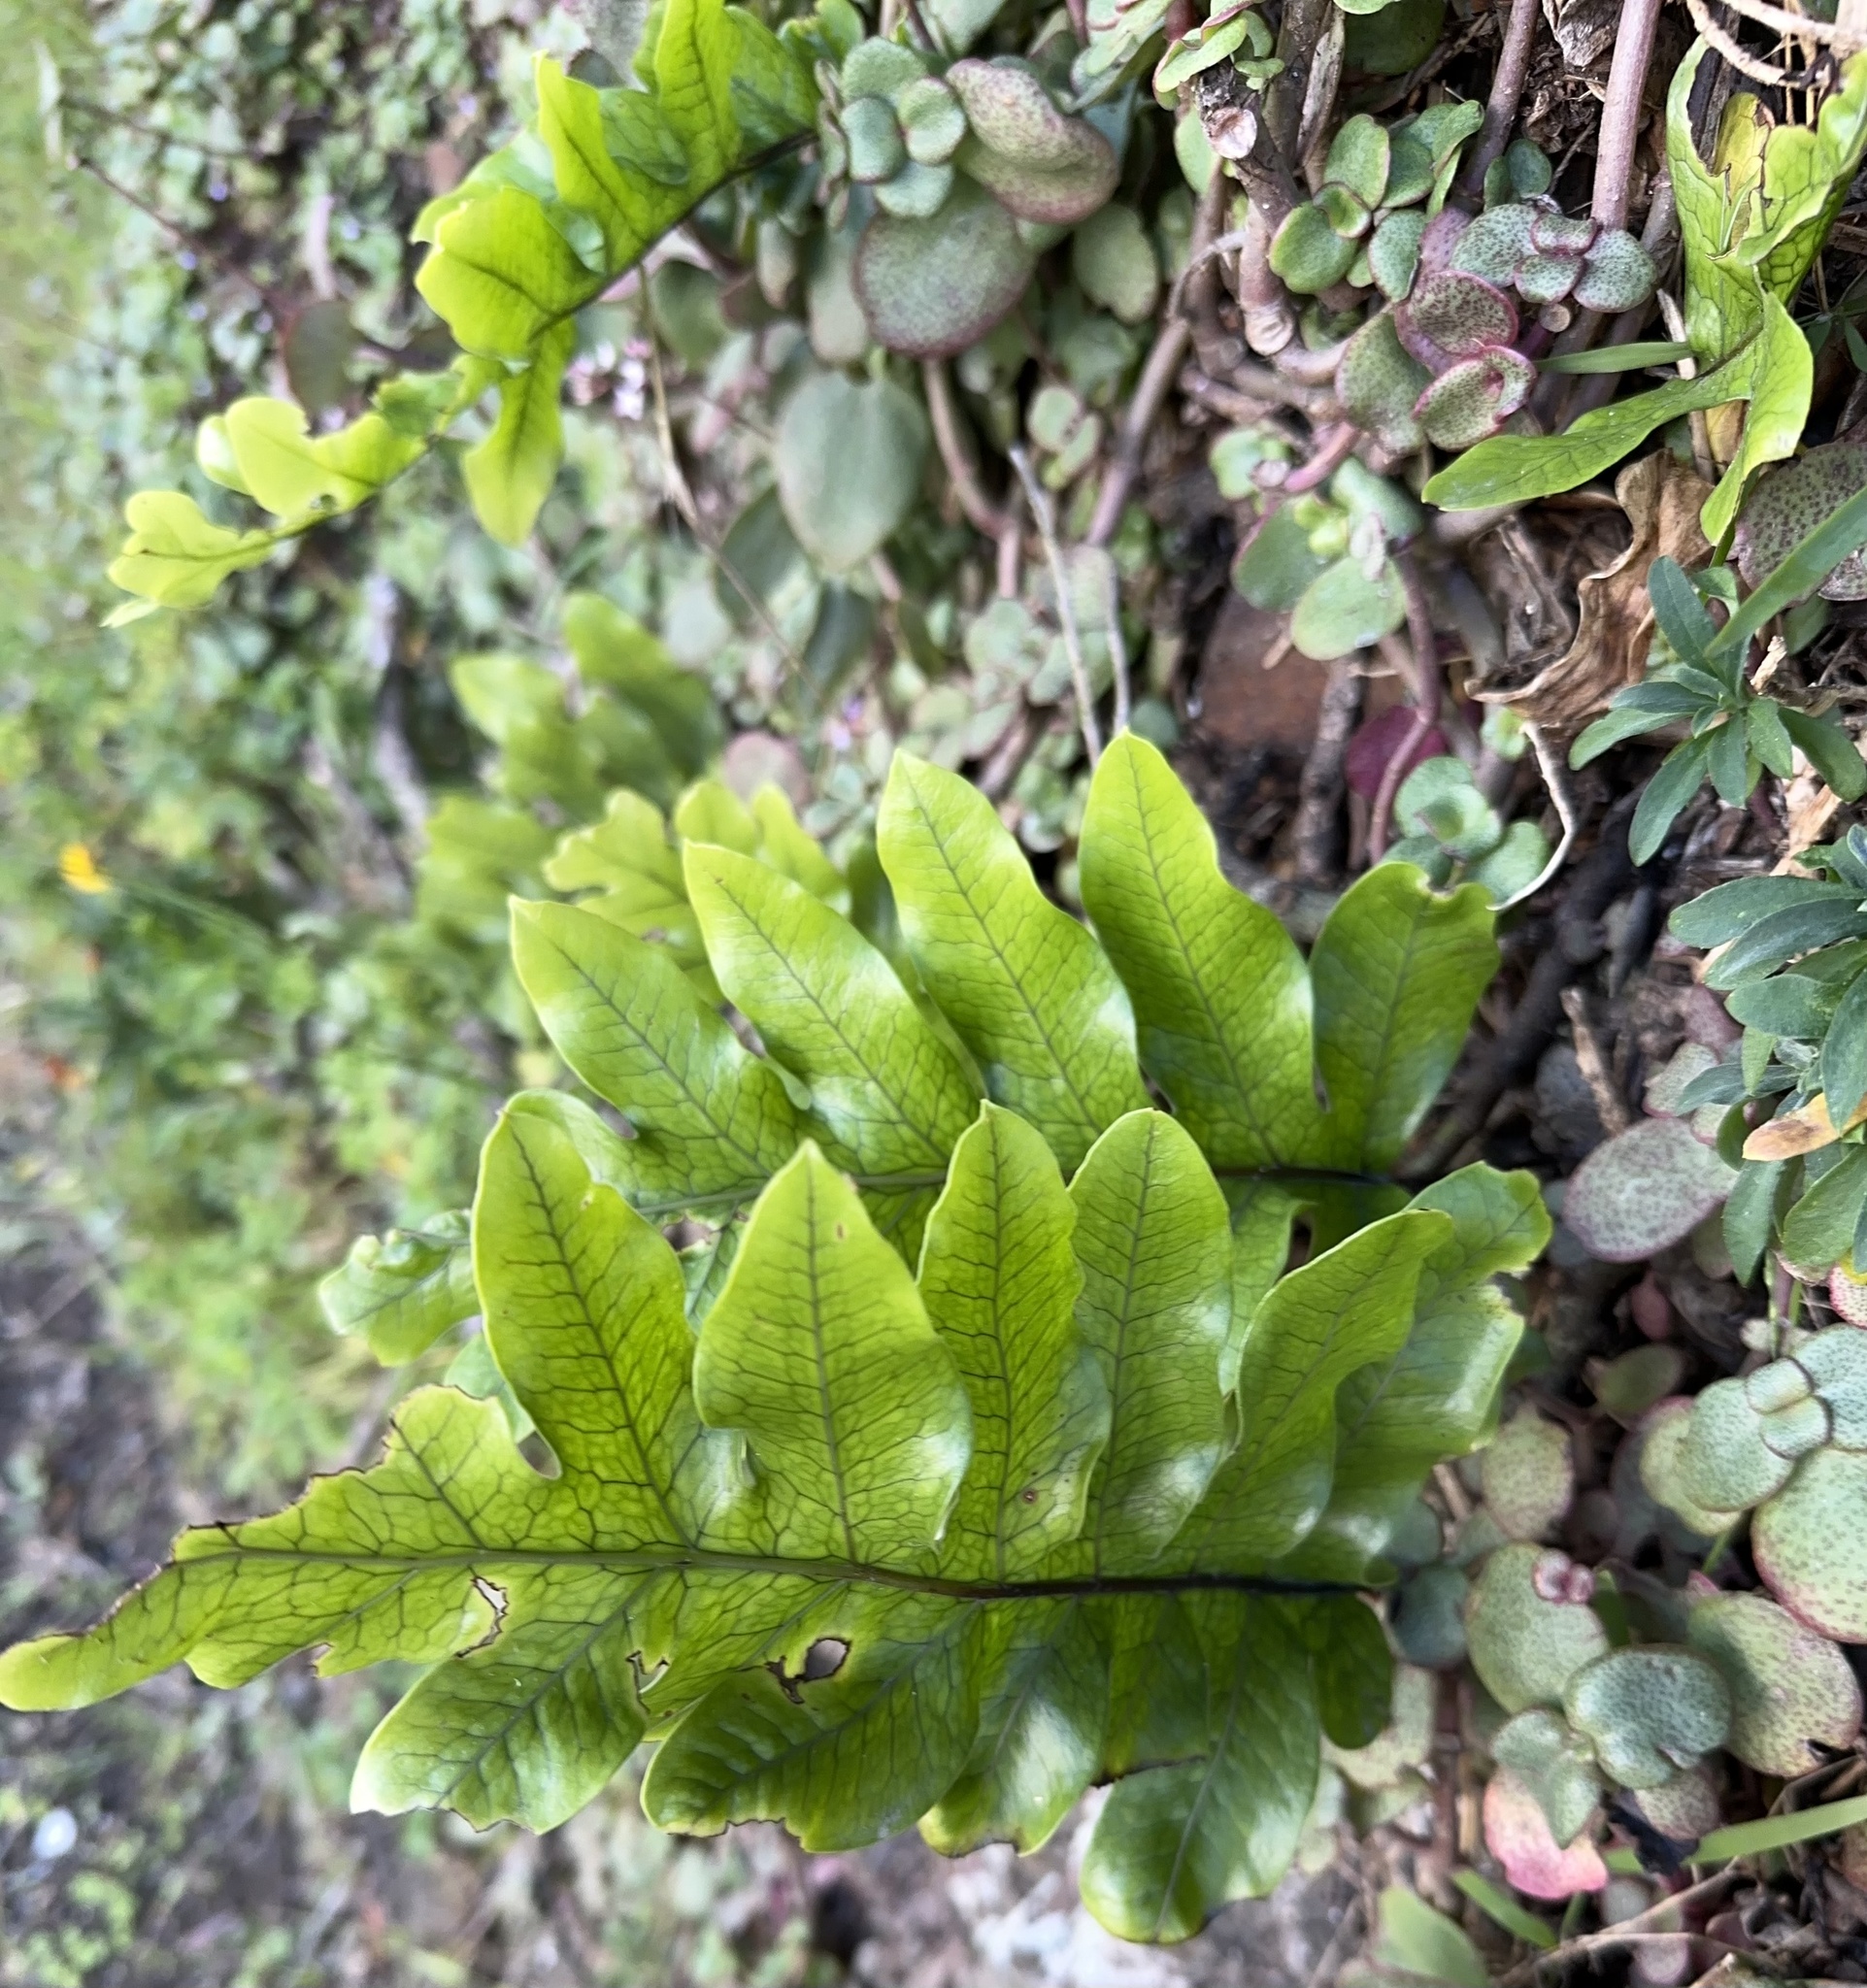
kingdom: Plantae
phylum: Tracheophyta
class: Polypodiopsida
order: Polypodiales
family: Polypodiaceae
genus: Lecanopteris
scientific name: Lecanopteris pustulata
